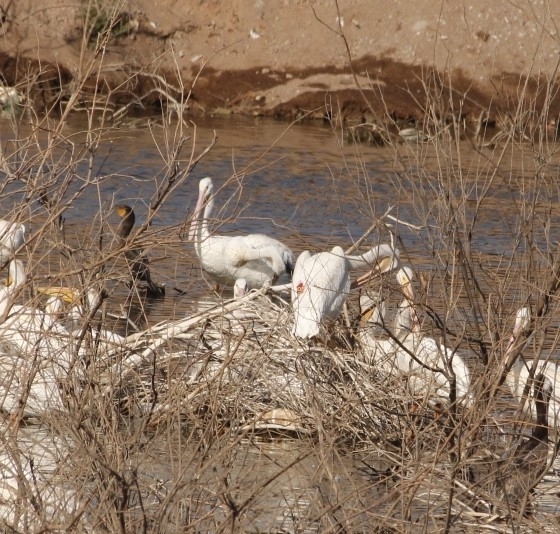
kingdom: Animalia
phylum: Chordata
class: Aves
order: Pelecaniformes
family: Pelecanidae
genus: Pelecanus
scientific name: Pelecanus erythrorhynchos
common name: American white pelican
